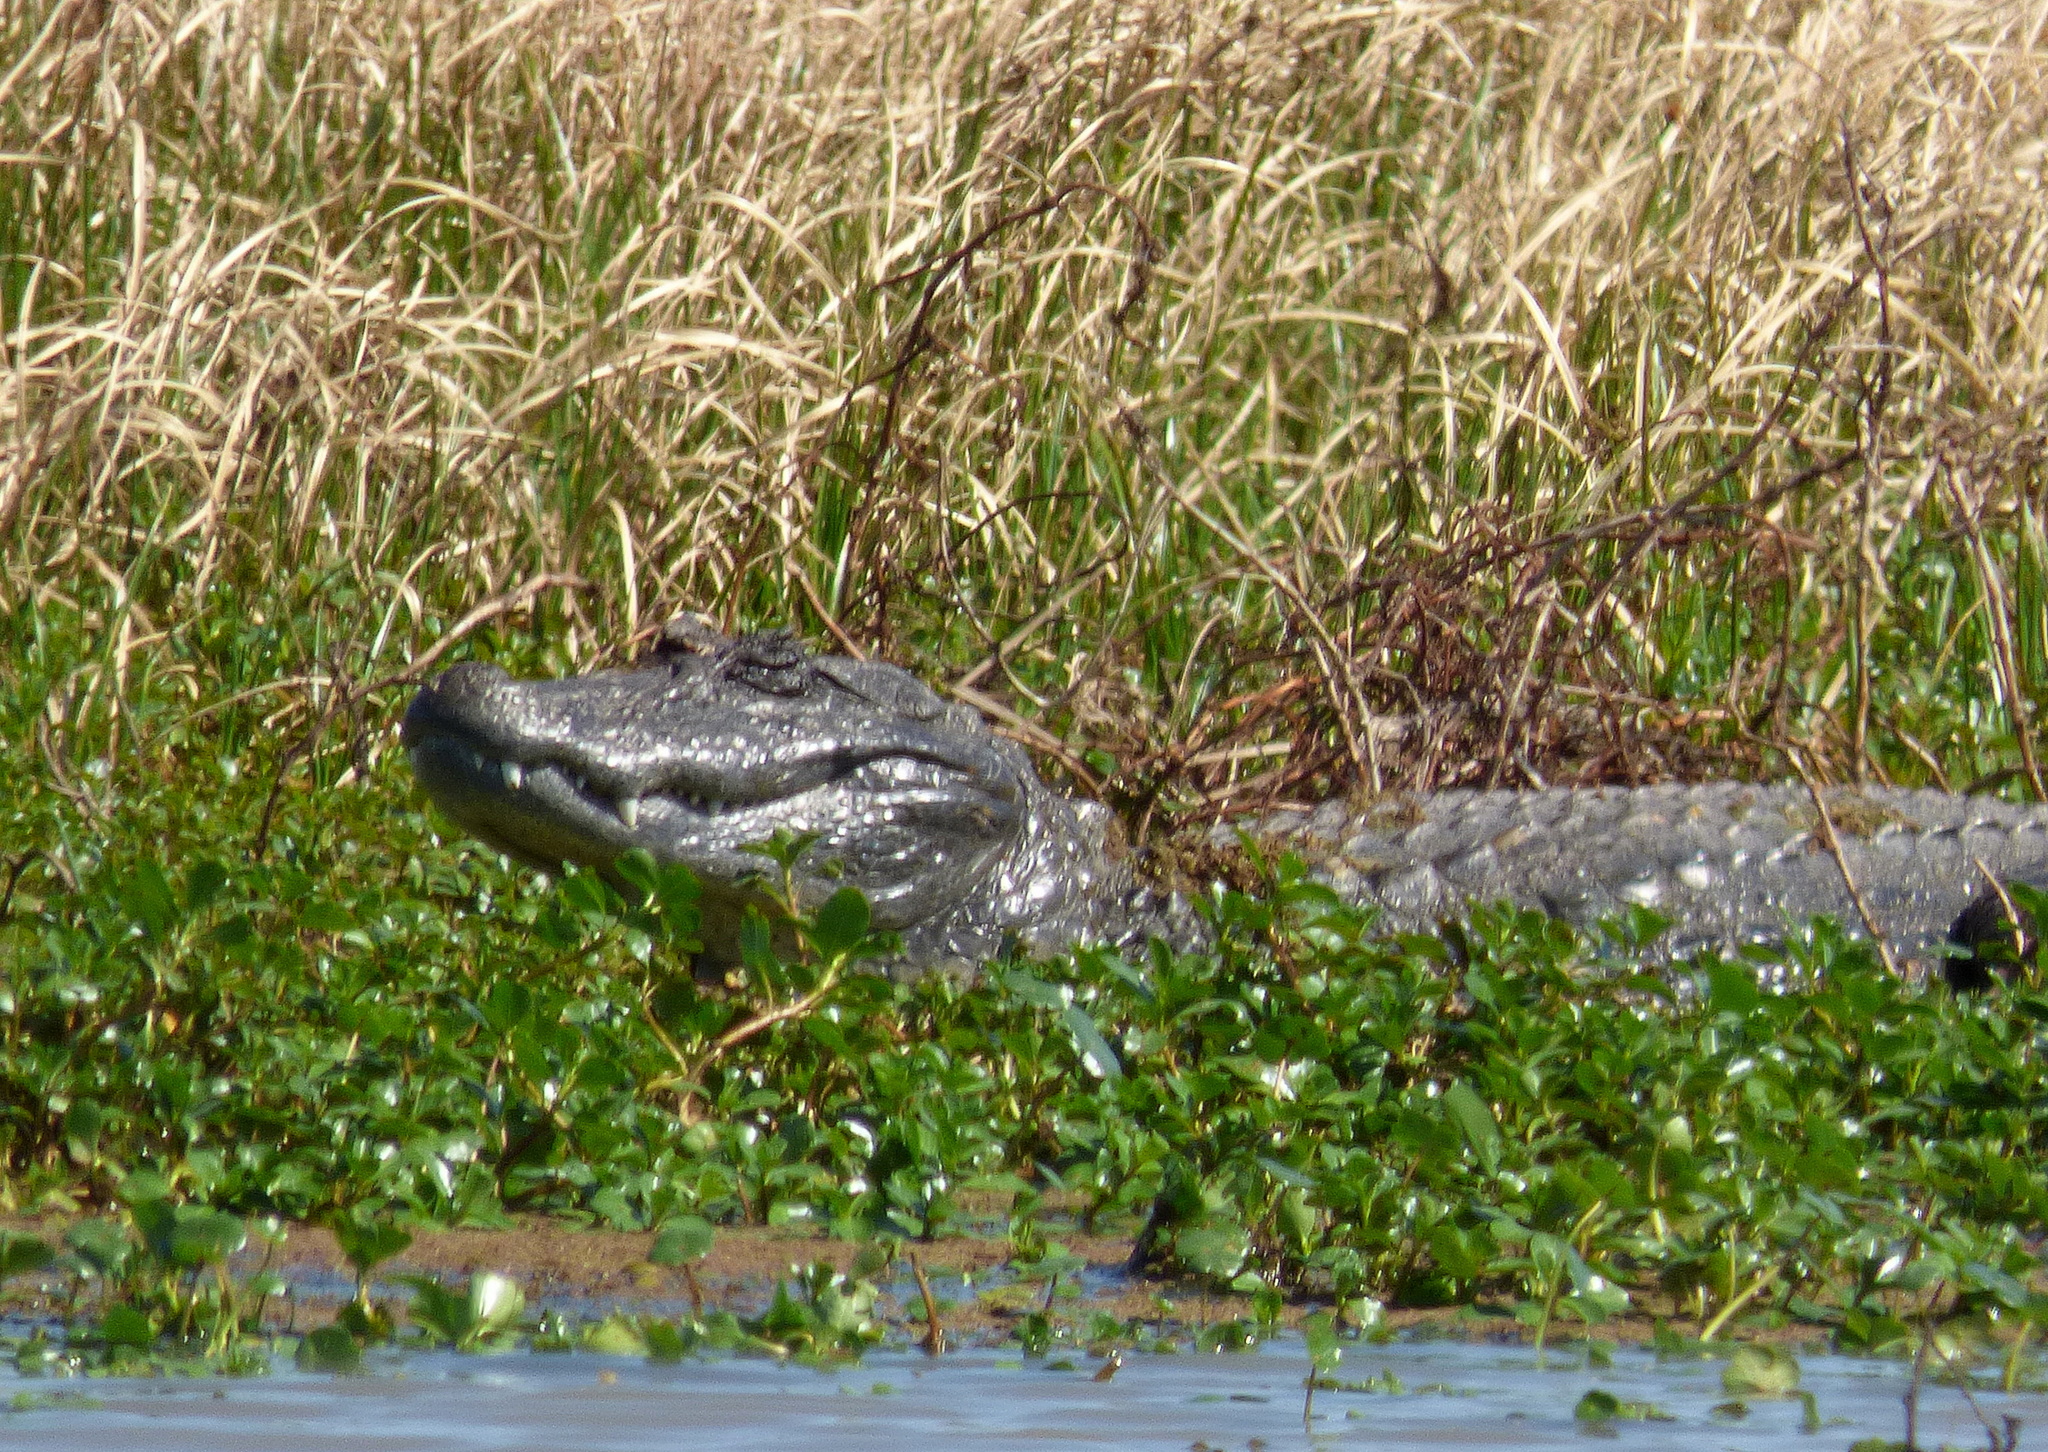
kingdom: Animalia
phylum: Chordata
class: Crocodylia
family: Alligatoridae
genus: Caiman
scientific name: Caiman latirostris
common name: Broad-snouted caiman
